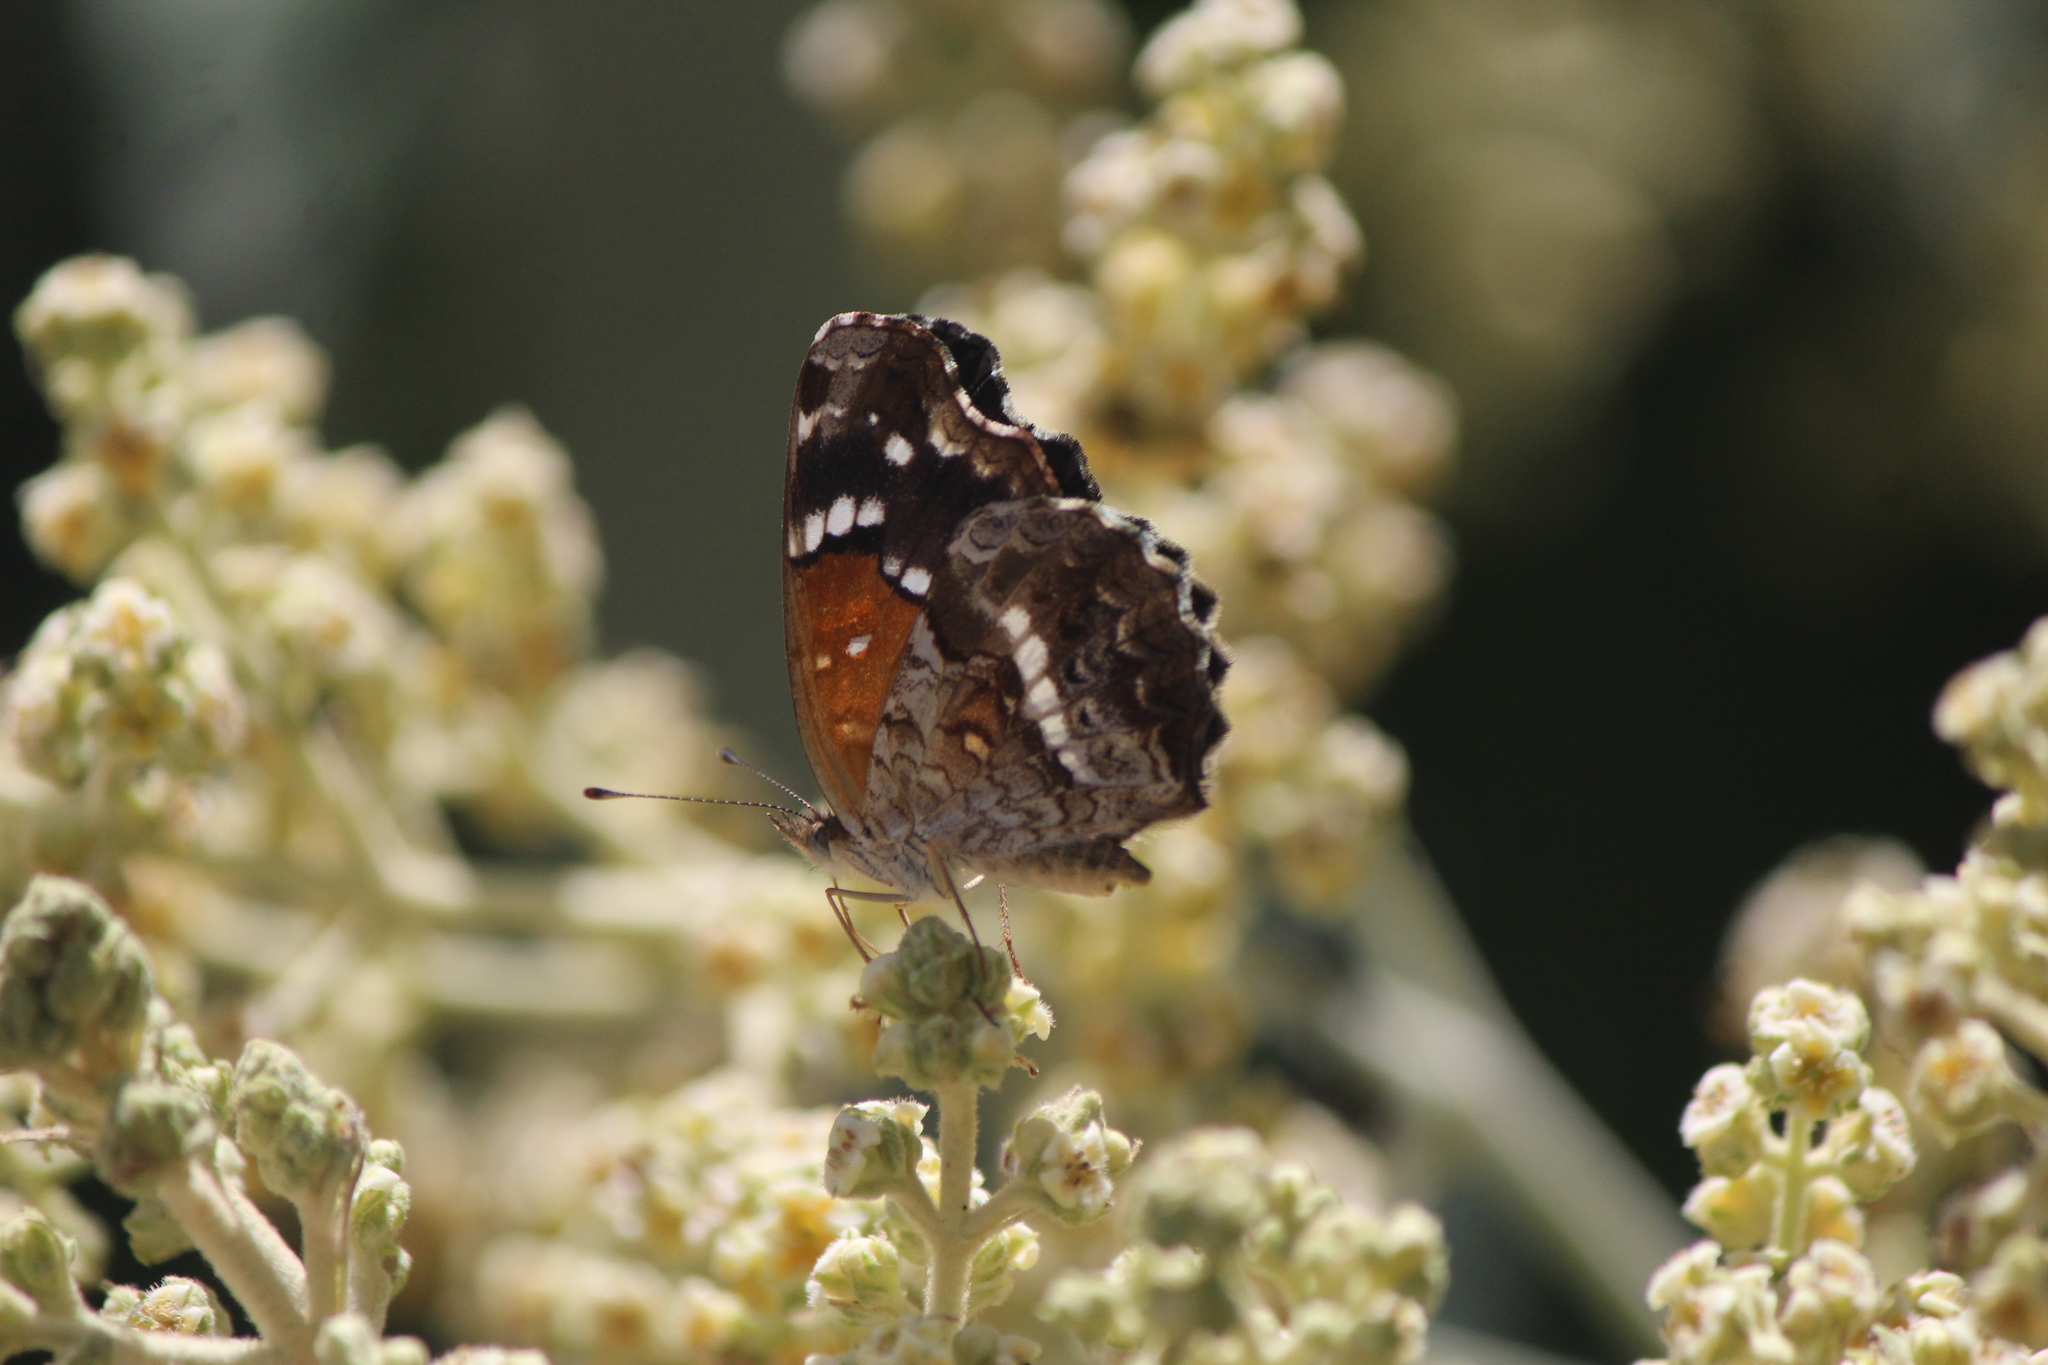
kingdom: Animalia
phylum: Arthropoda
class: Insecta
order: Lepidoptera
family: Nymphalidae
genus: Anthanassa
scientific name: Anthanassa texana
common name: Texan crescent
